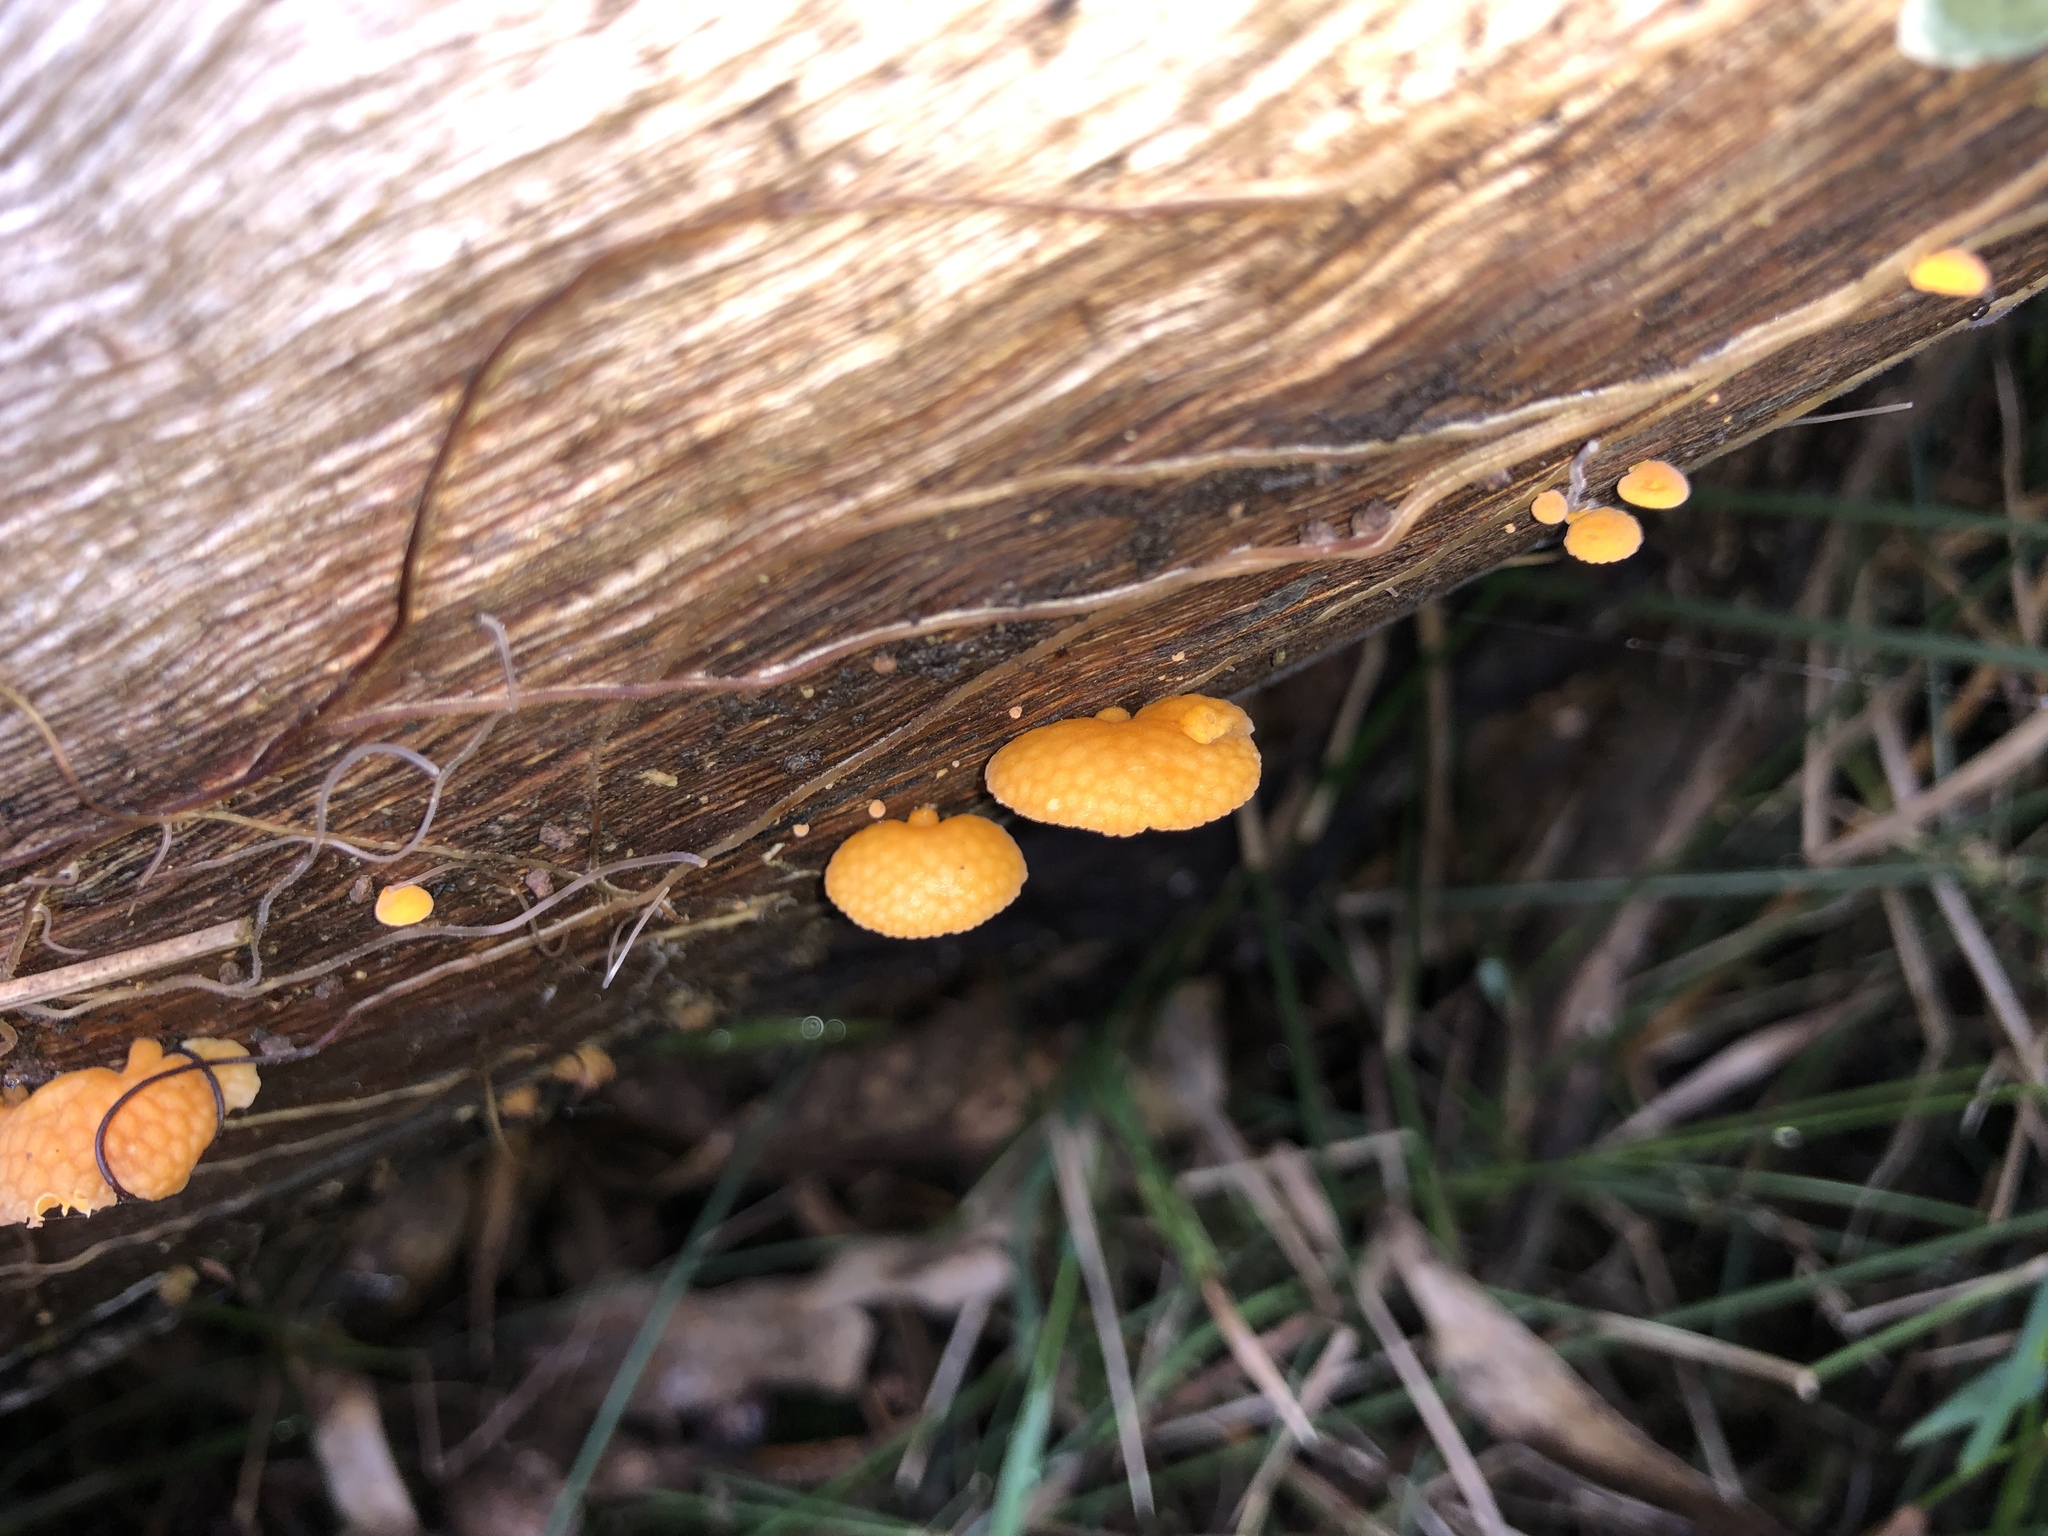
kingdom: Fungi
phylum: Basidiomycota
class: Agaricomycetes
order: Agaricales
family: Mycenaceae
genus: Favolaschia
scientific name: Favolaschia claudopus
